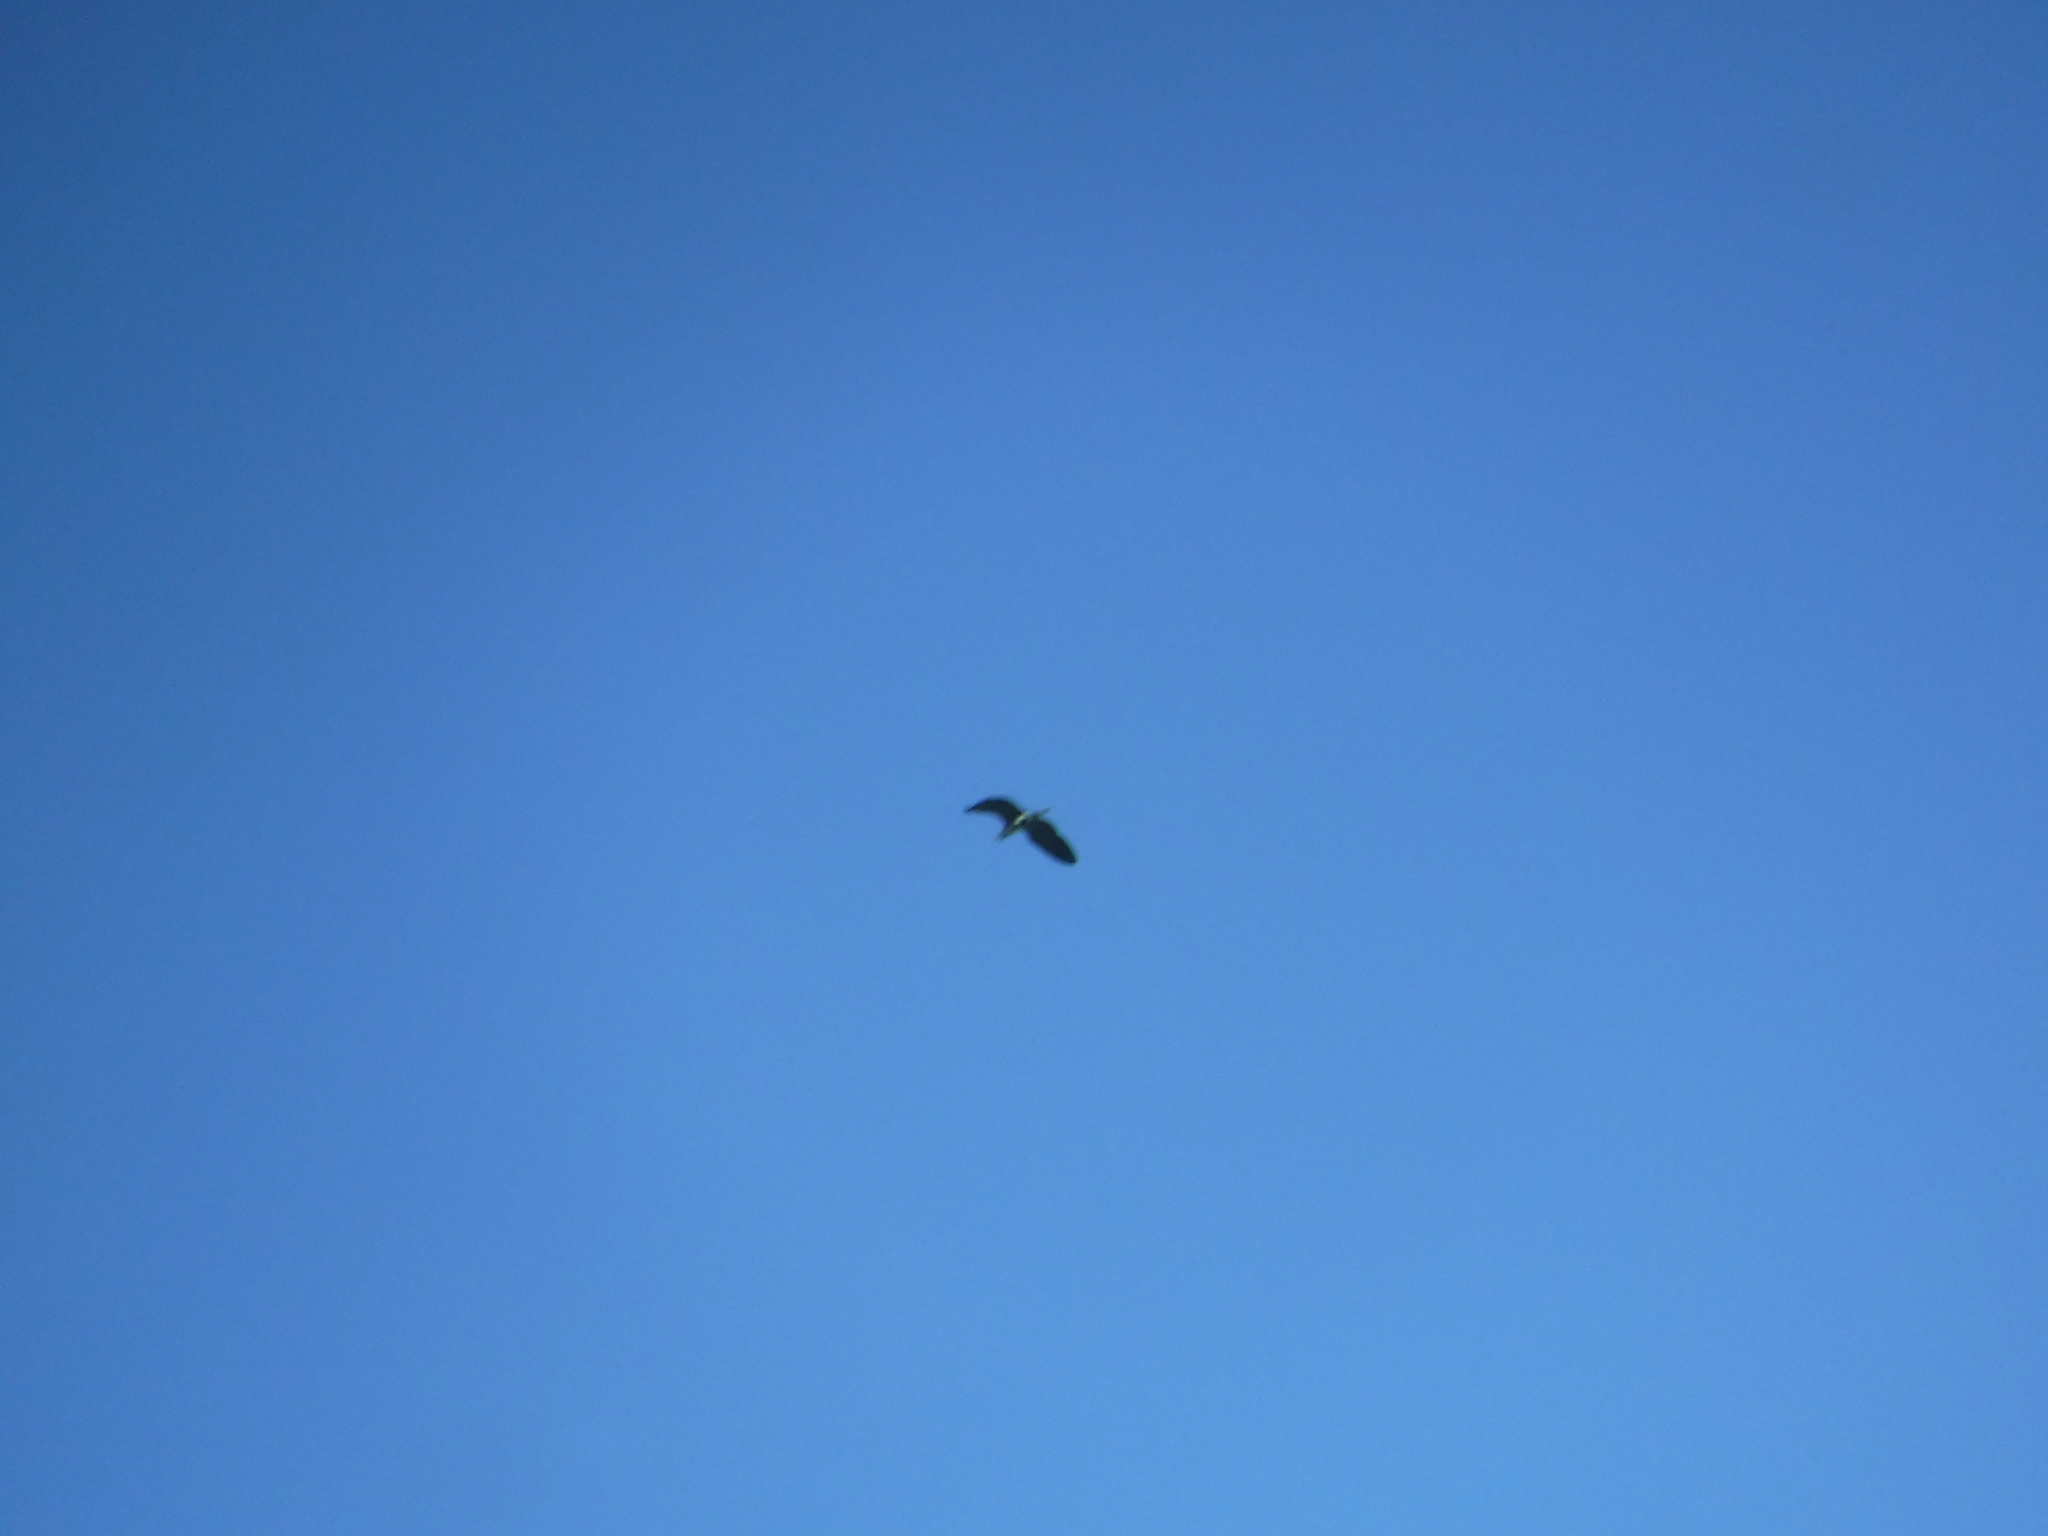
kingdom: Animalia
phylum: Chordata
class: Aves
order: Pelecaniformes
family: Ardeidae
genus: Ardea
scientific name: Ardea cinerea
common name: Grey heron
